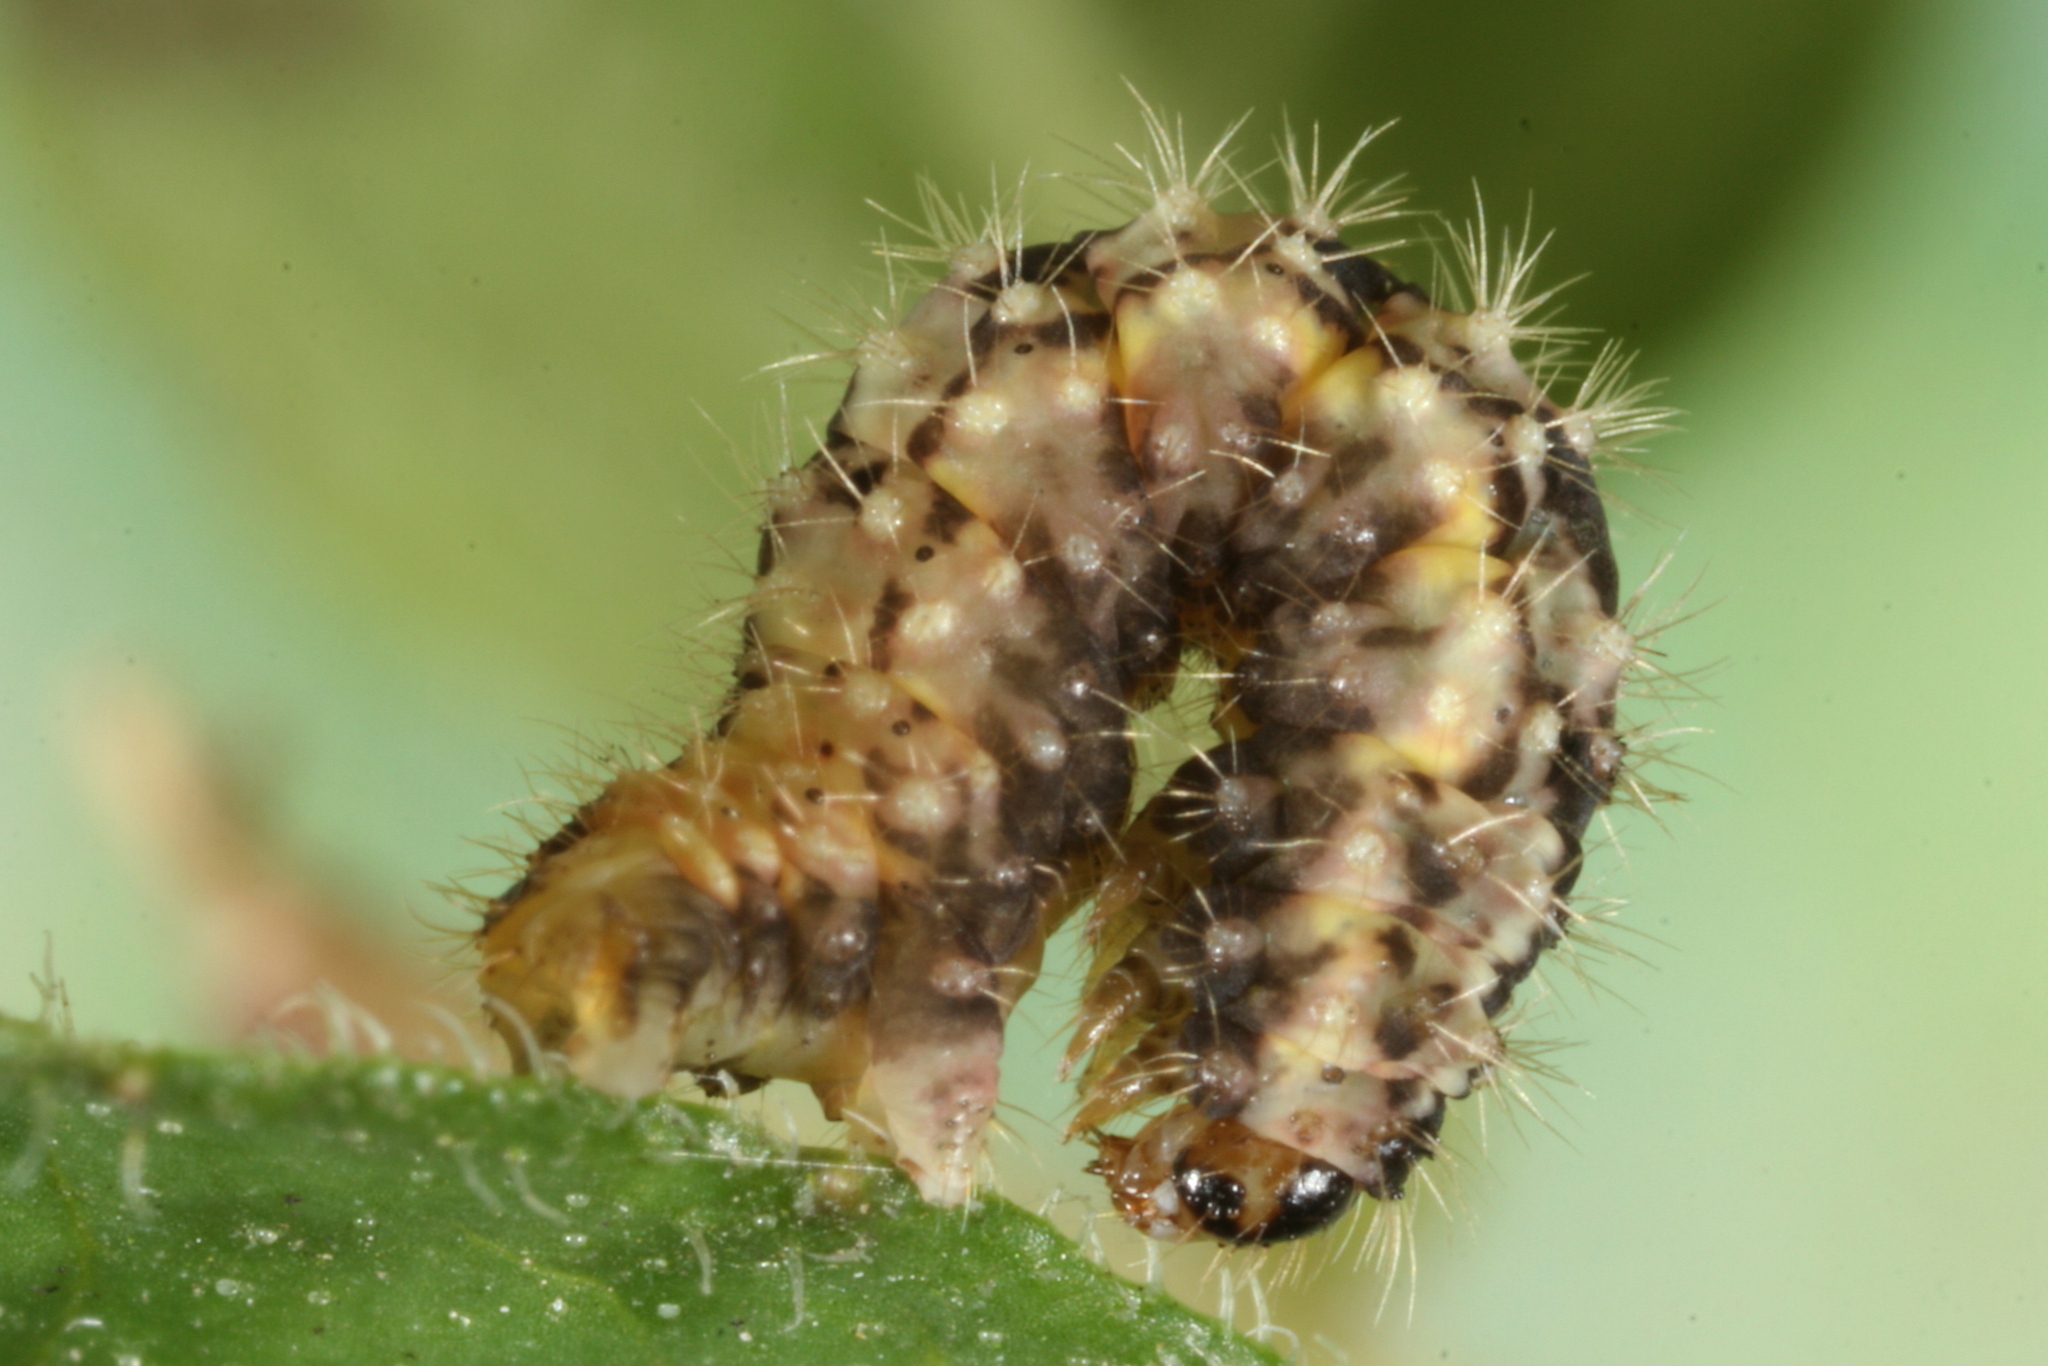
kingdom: Animalia
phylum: Arthropoda
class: Insecta
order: Lepidoptera
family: Geometridae
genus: Minoa
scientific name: Minoa murinata
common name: Drab looper
